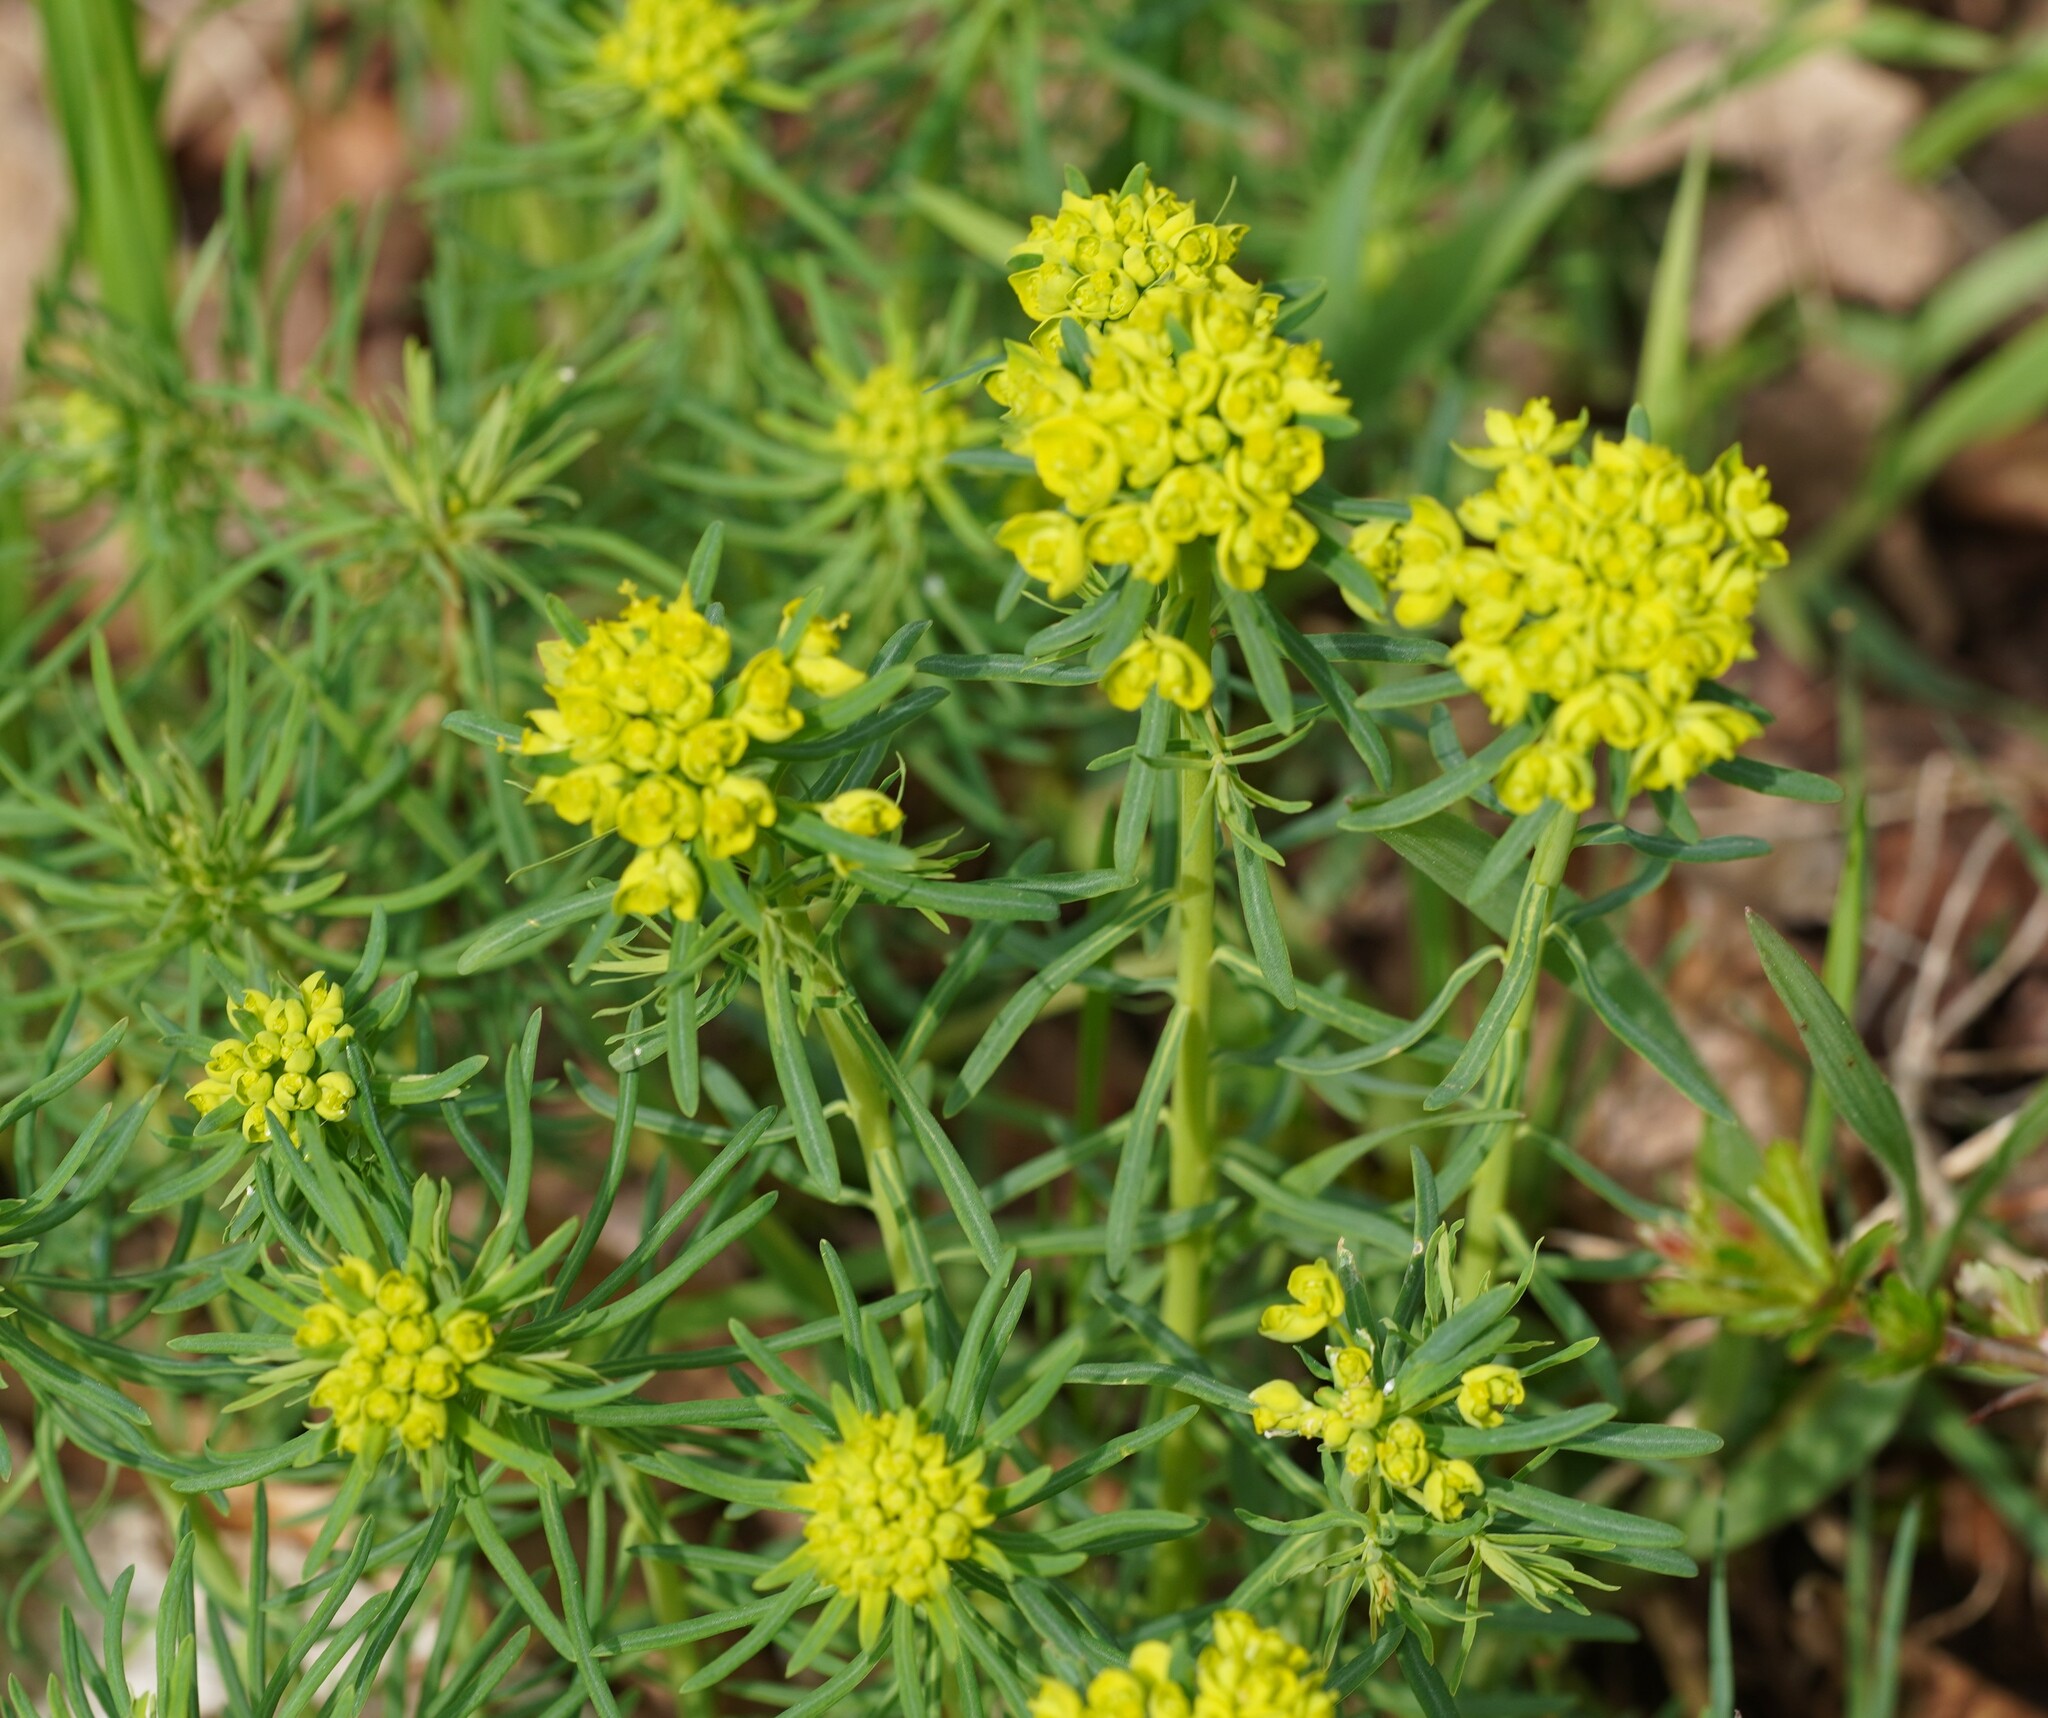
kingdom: Plantae
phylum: Tracheophyta
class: Magnoliopsida
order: Malpighiales
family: Euphorbiaceae
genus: Euphorbia
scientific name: Euphorbia cyparissias
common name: Cypress spurge
